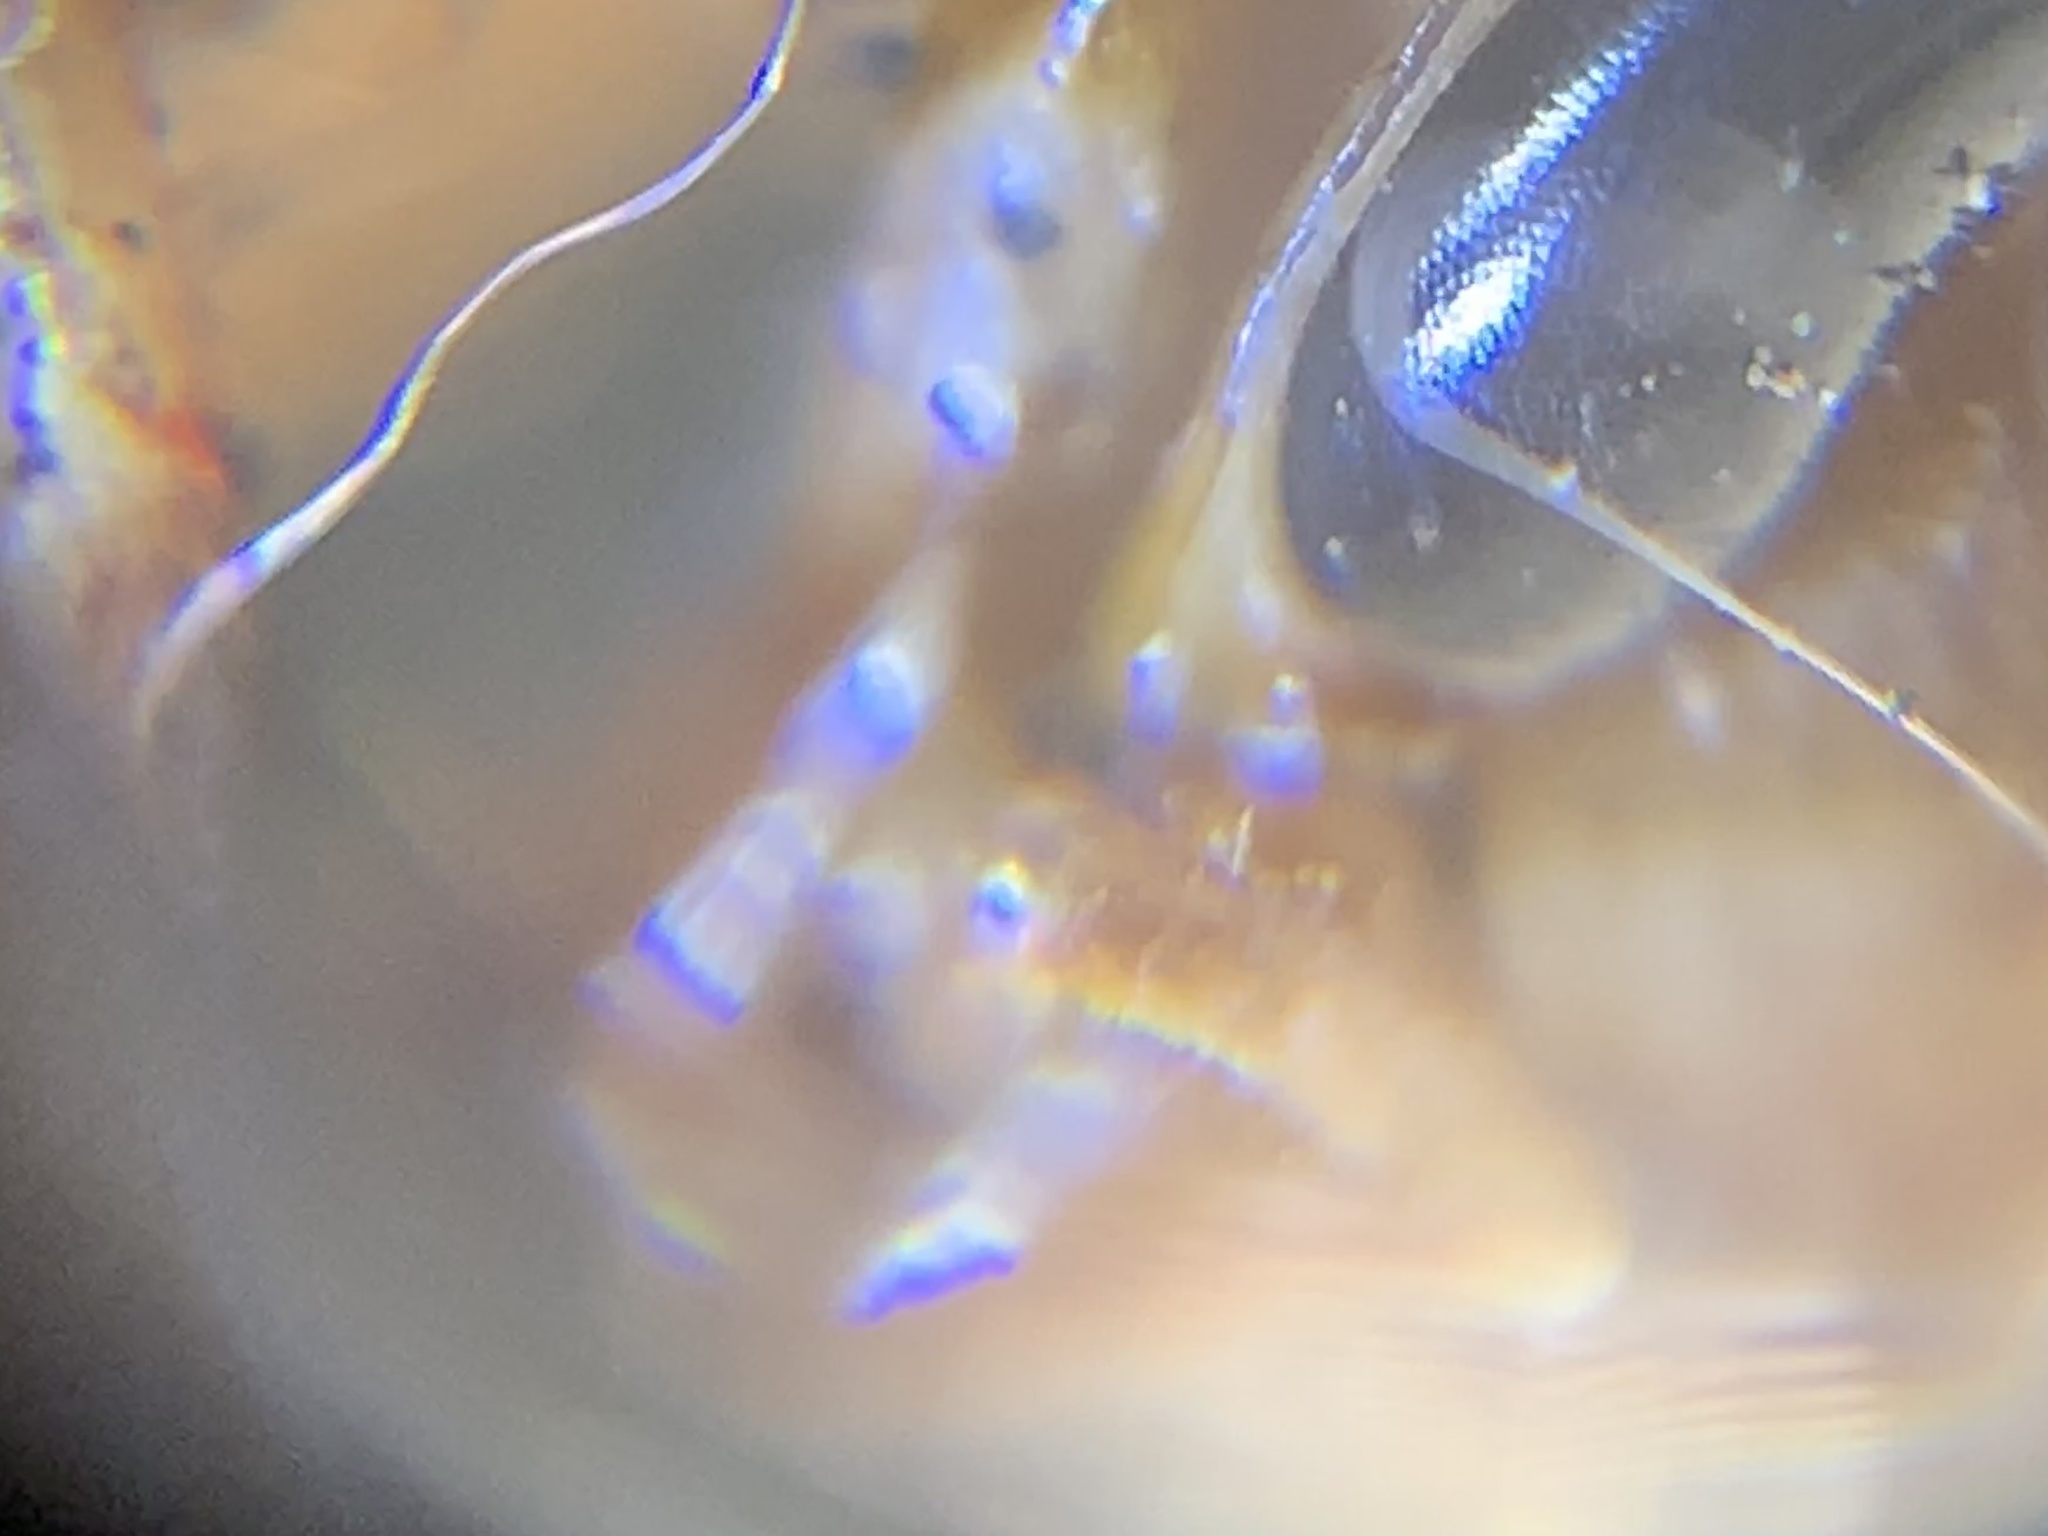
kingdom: Animalia
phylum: Arthropoda
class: Insecta
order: Blattodea
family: Blattidae
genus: Periplaneta
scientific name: Periplaneta americana
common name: American cockroach
